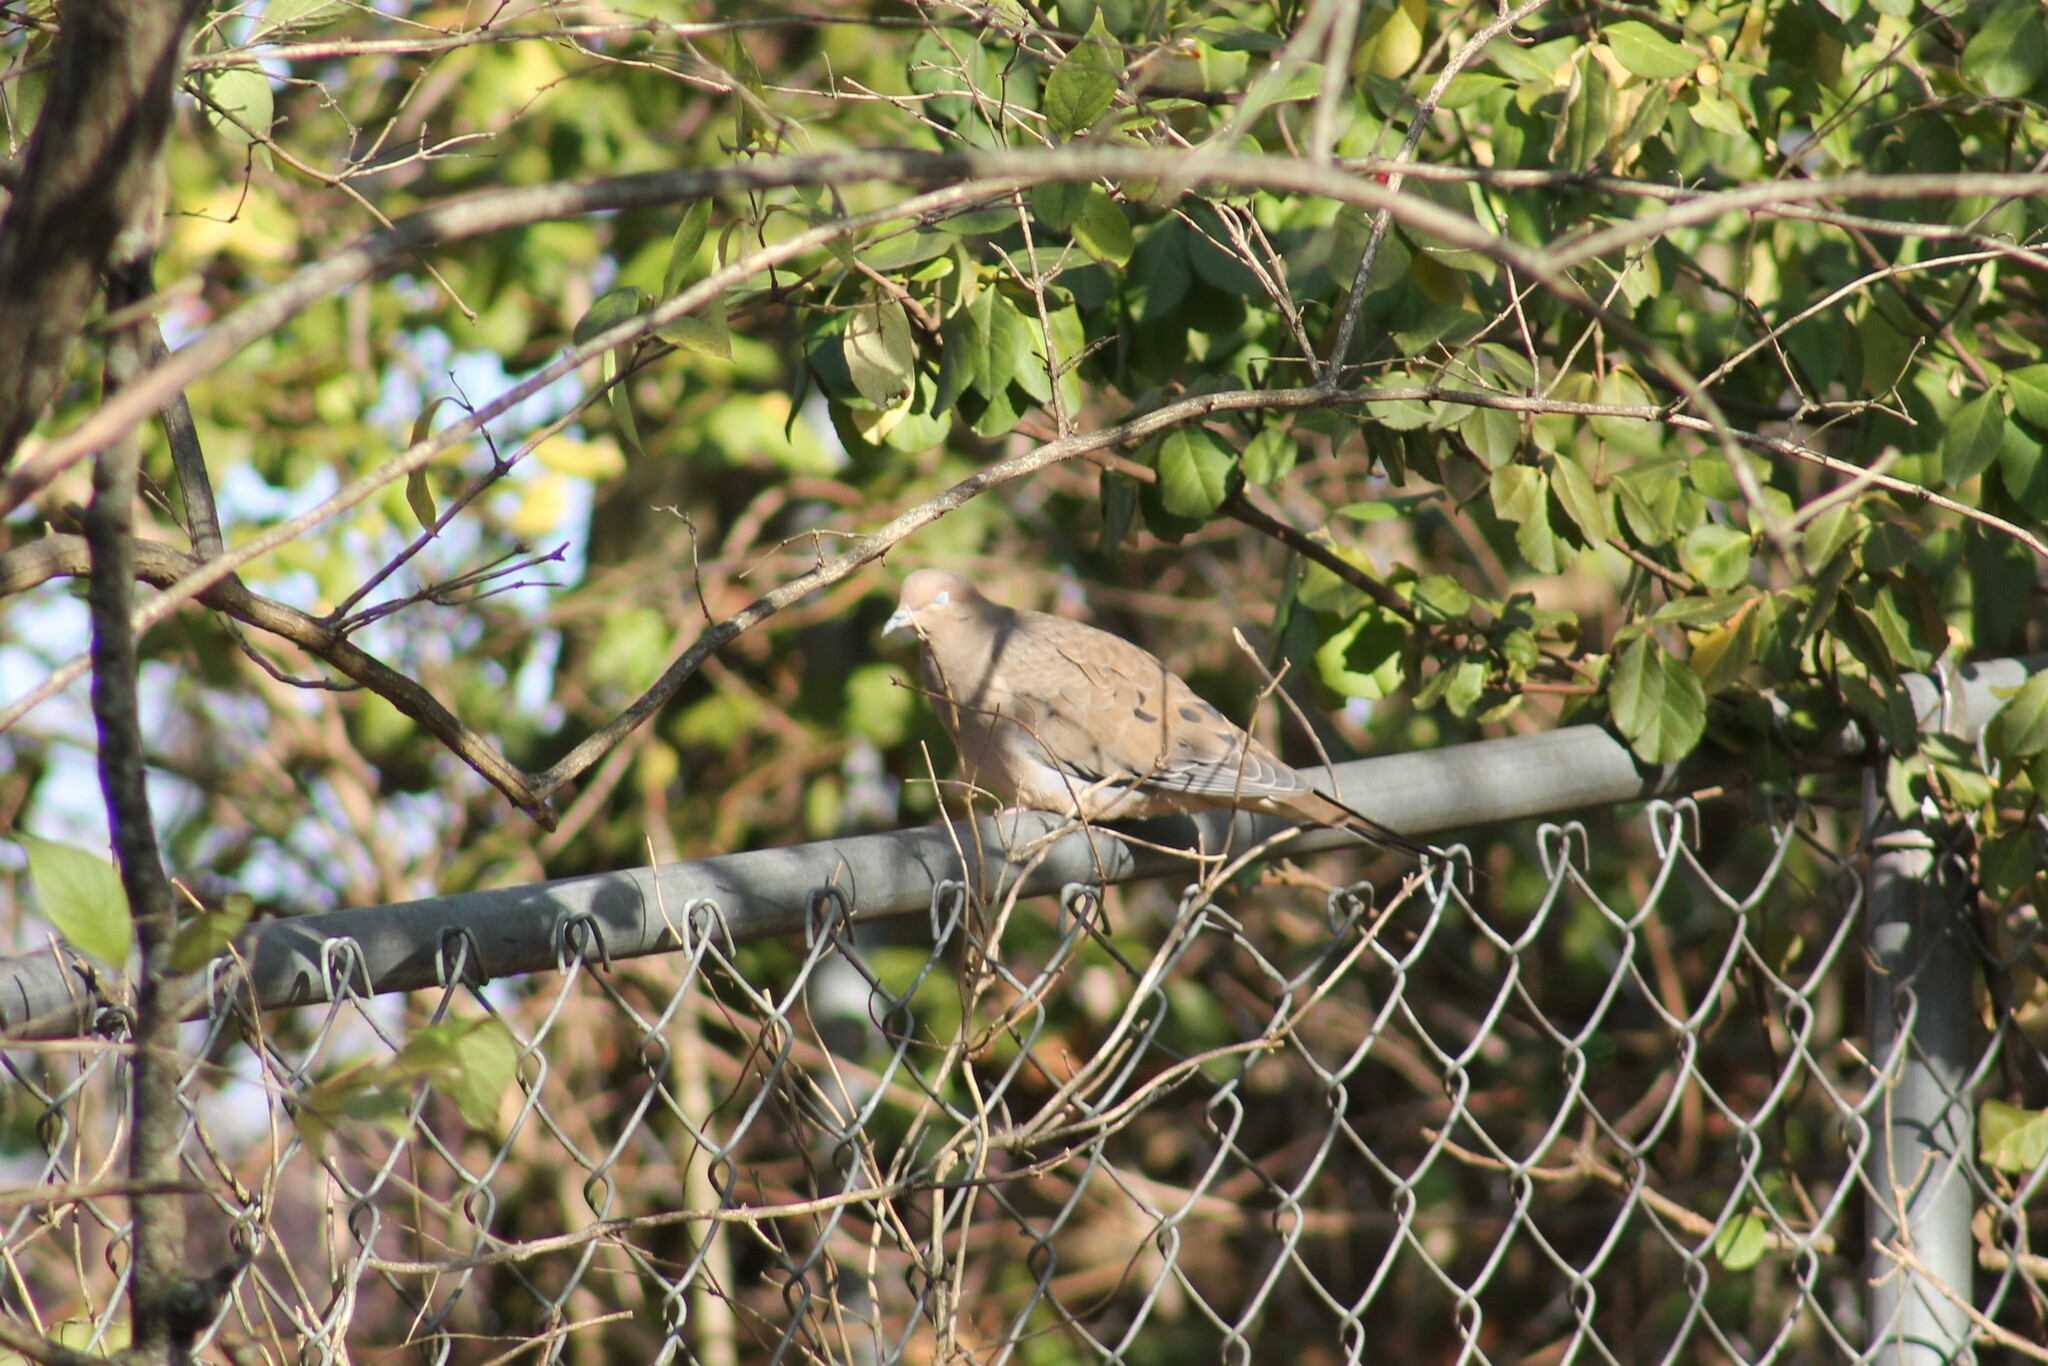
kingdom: Animalia
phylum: Chordata
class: Aves
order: Columbiformes
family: Columbidae
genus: Zenaida
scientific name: Zenaida macroura
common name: Mourning dove
